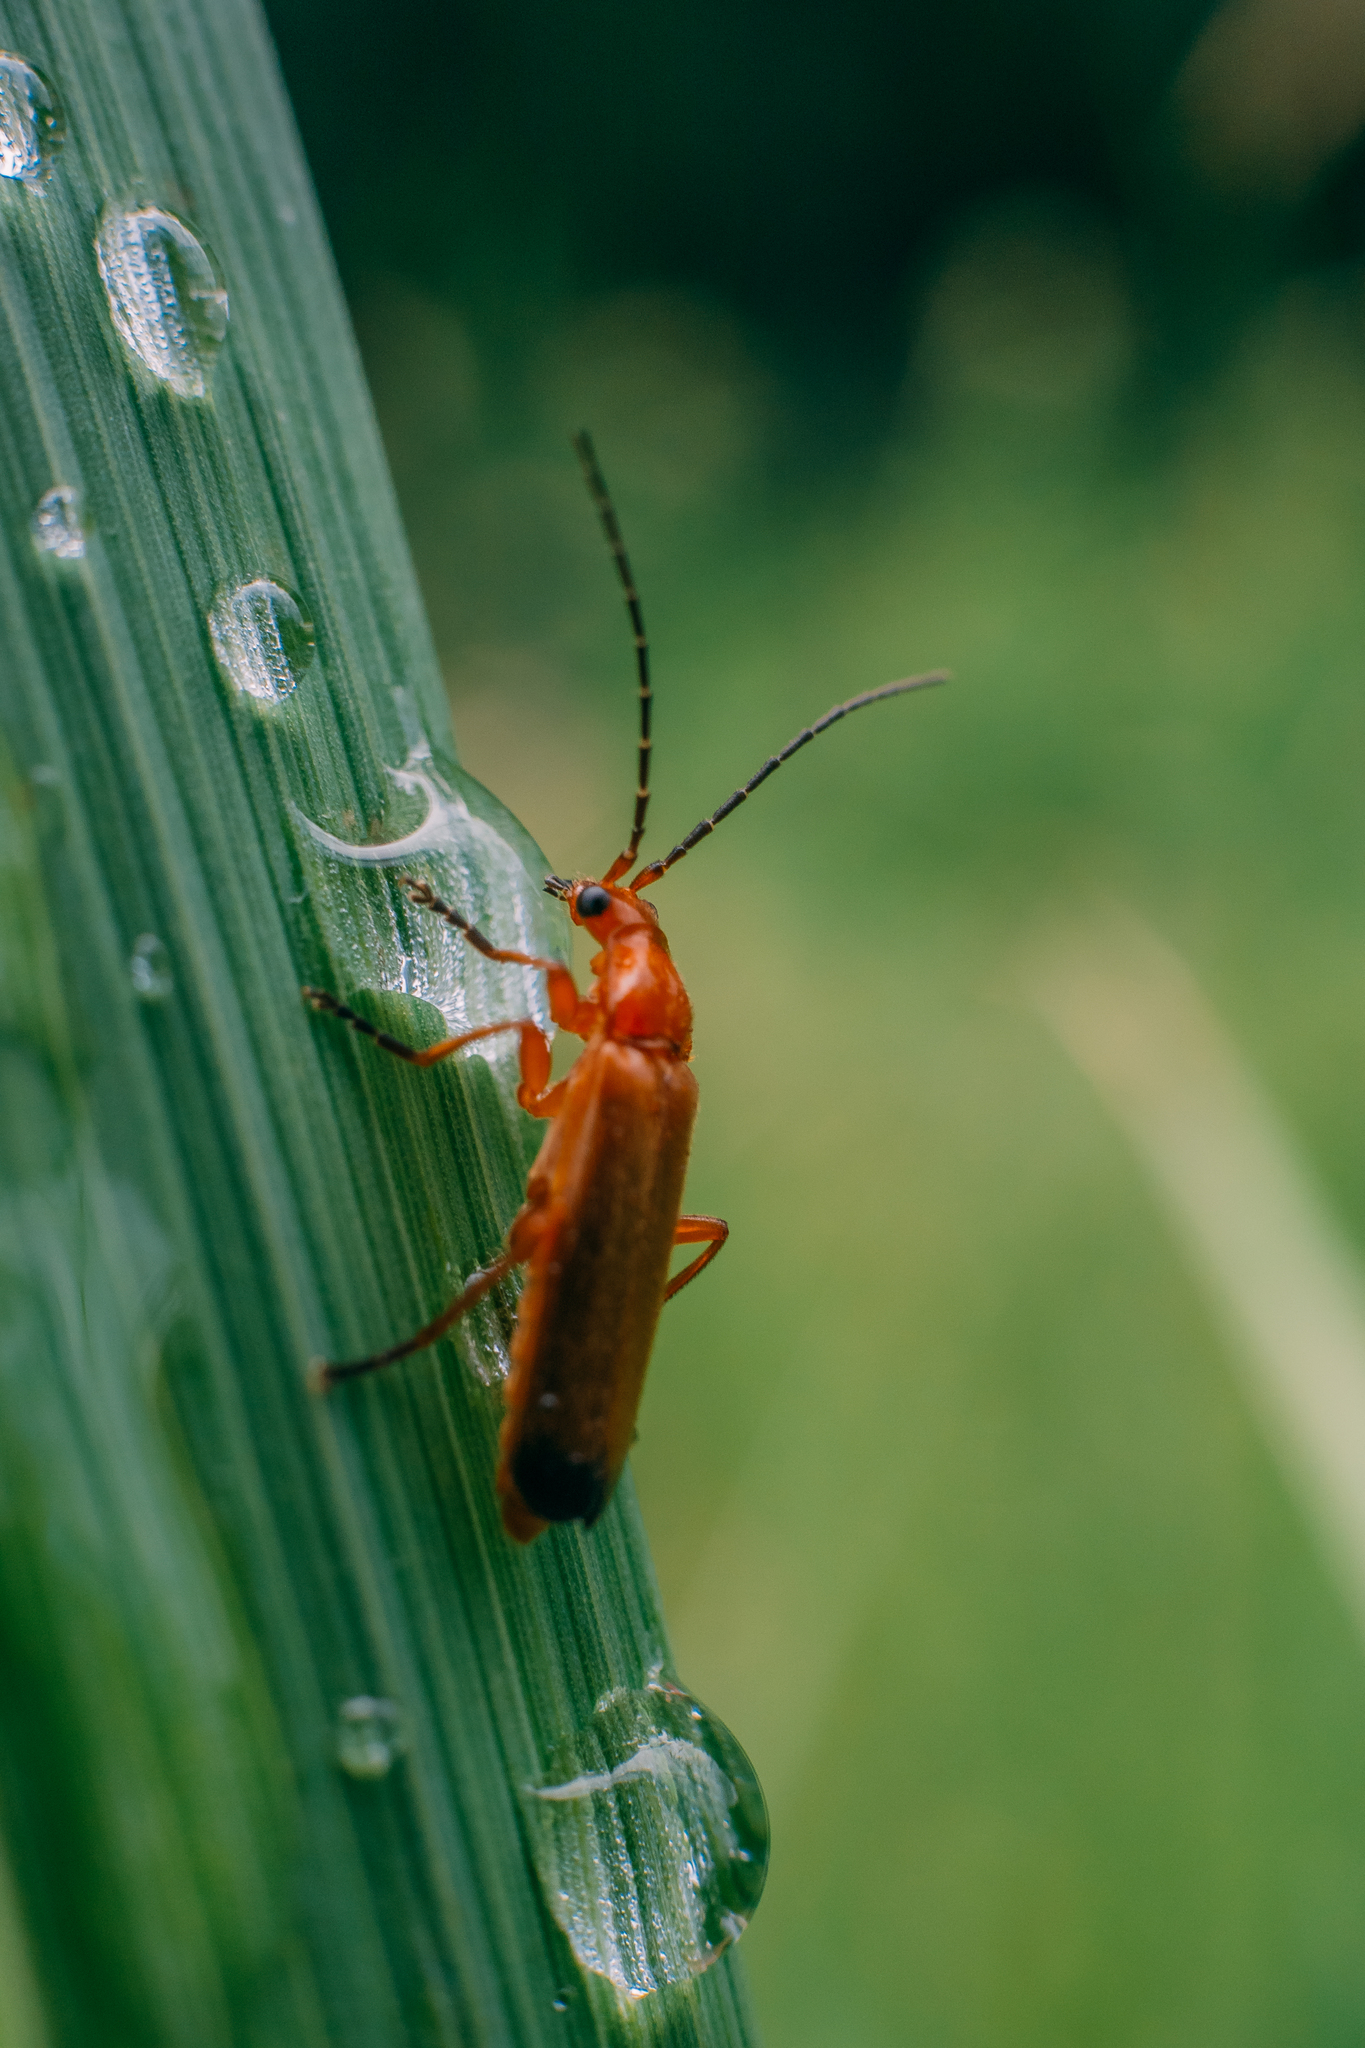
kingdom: Animalia
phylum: Arthropoda
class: Insecta
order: Coleoptera
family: Cantharidae
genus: Rhagonycha
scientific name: Rhagonycha fulva
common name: Common red soldier beetle
